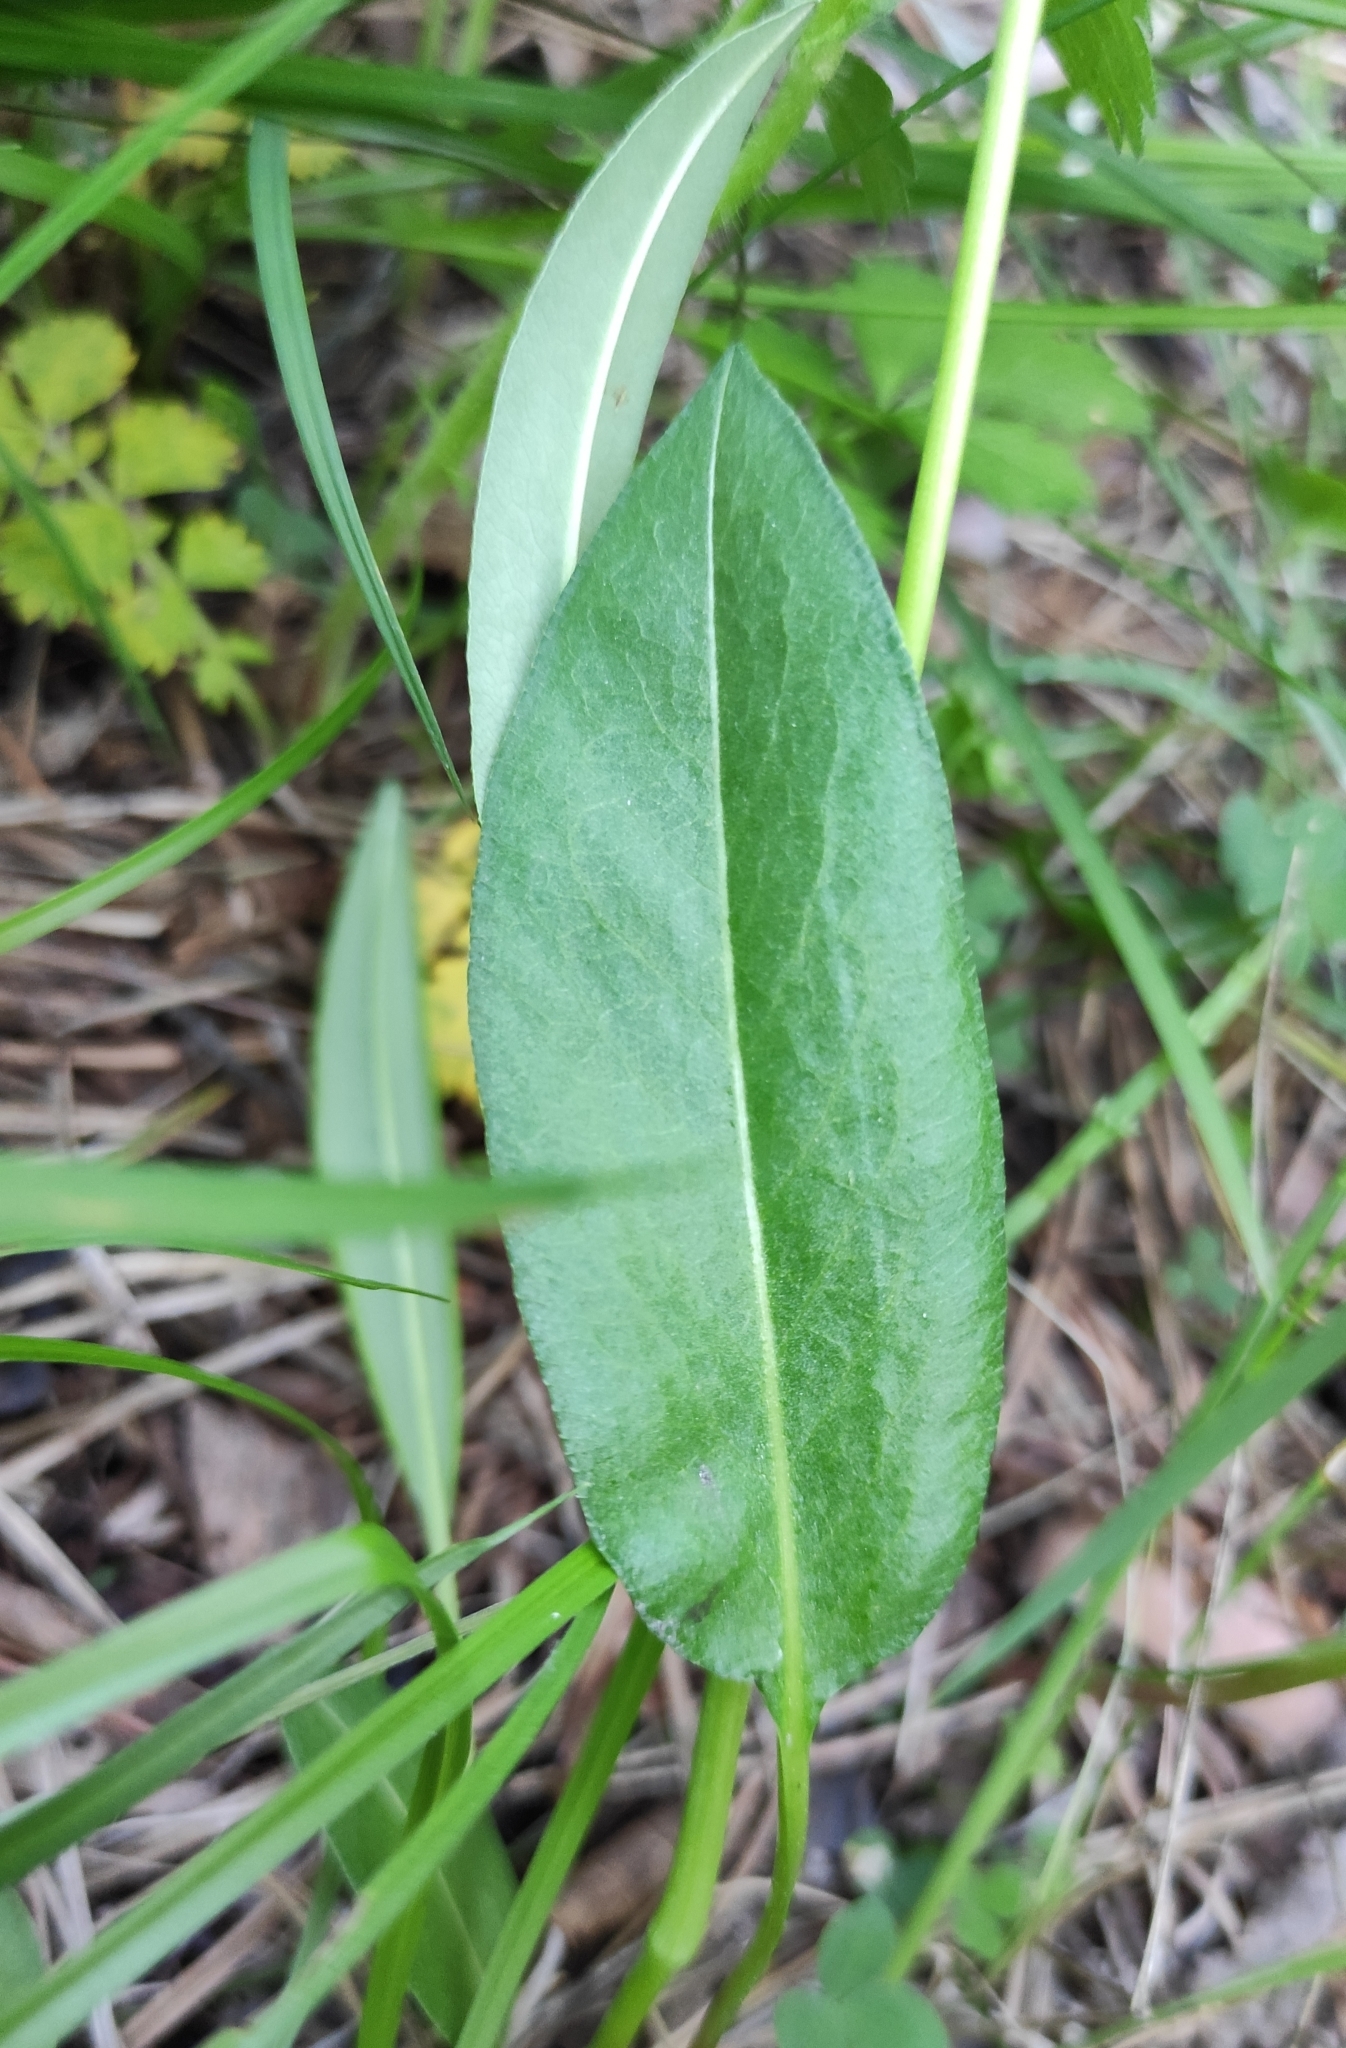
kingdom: Plantae
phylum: Tracheophyta
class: Magnoliopsida
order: Caryophyllales
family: Polygonaceae
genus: Bistorta
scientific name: Bistorta vivipara
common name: Alpine bistort
